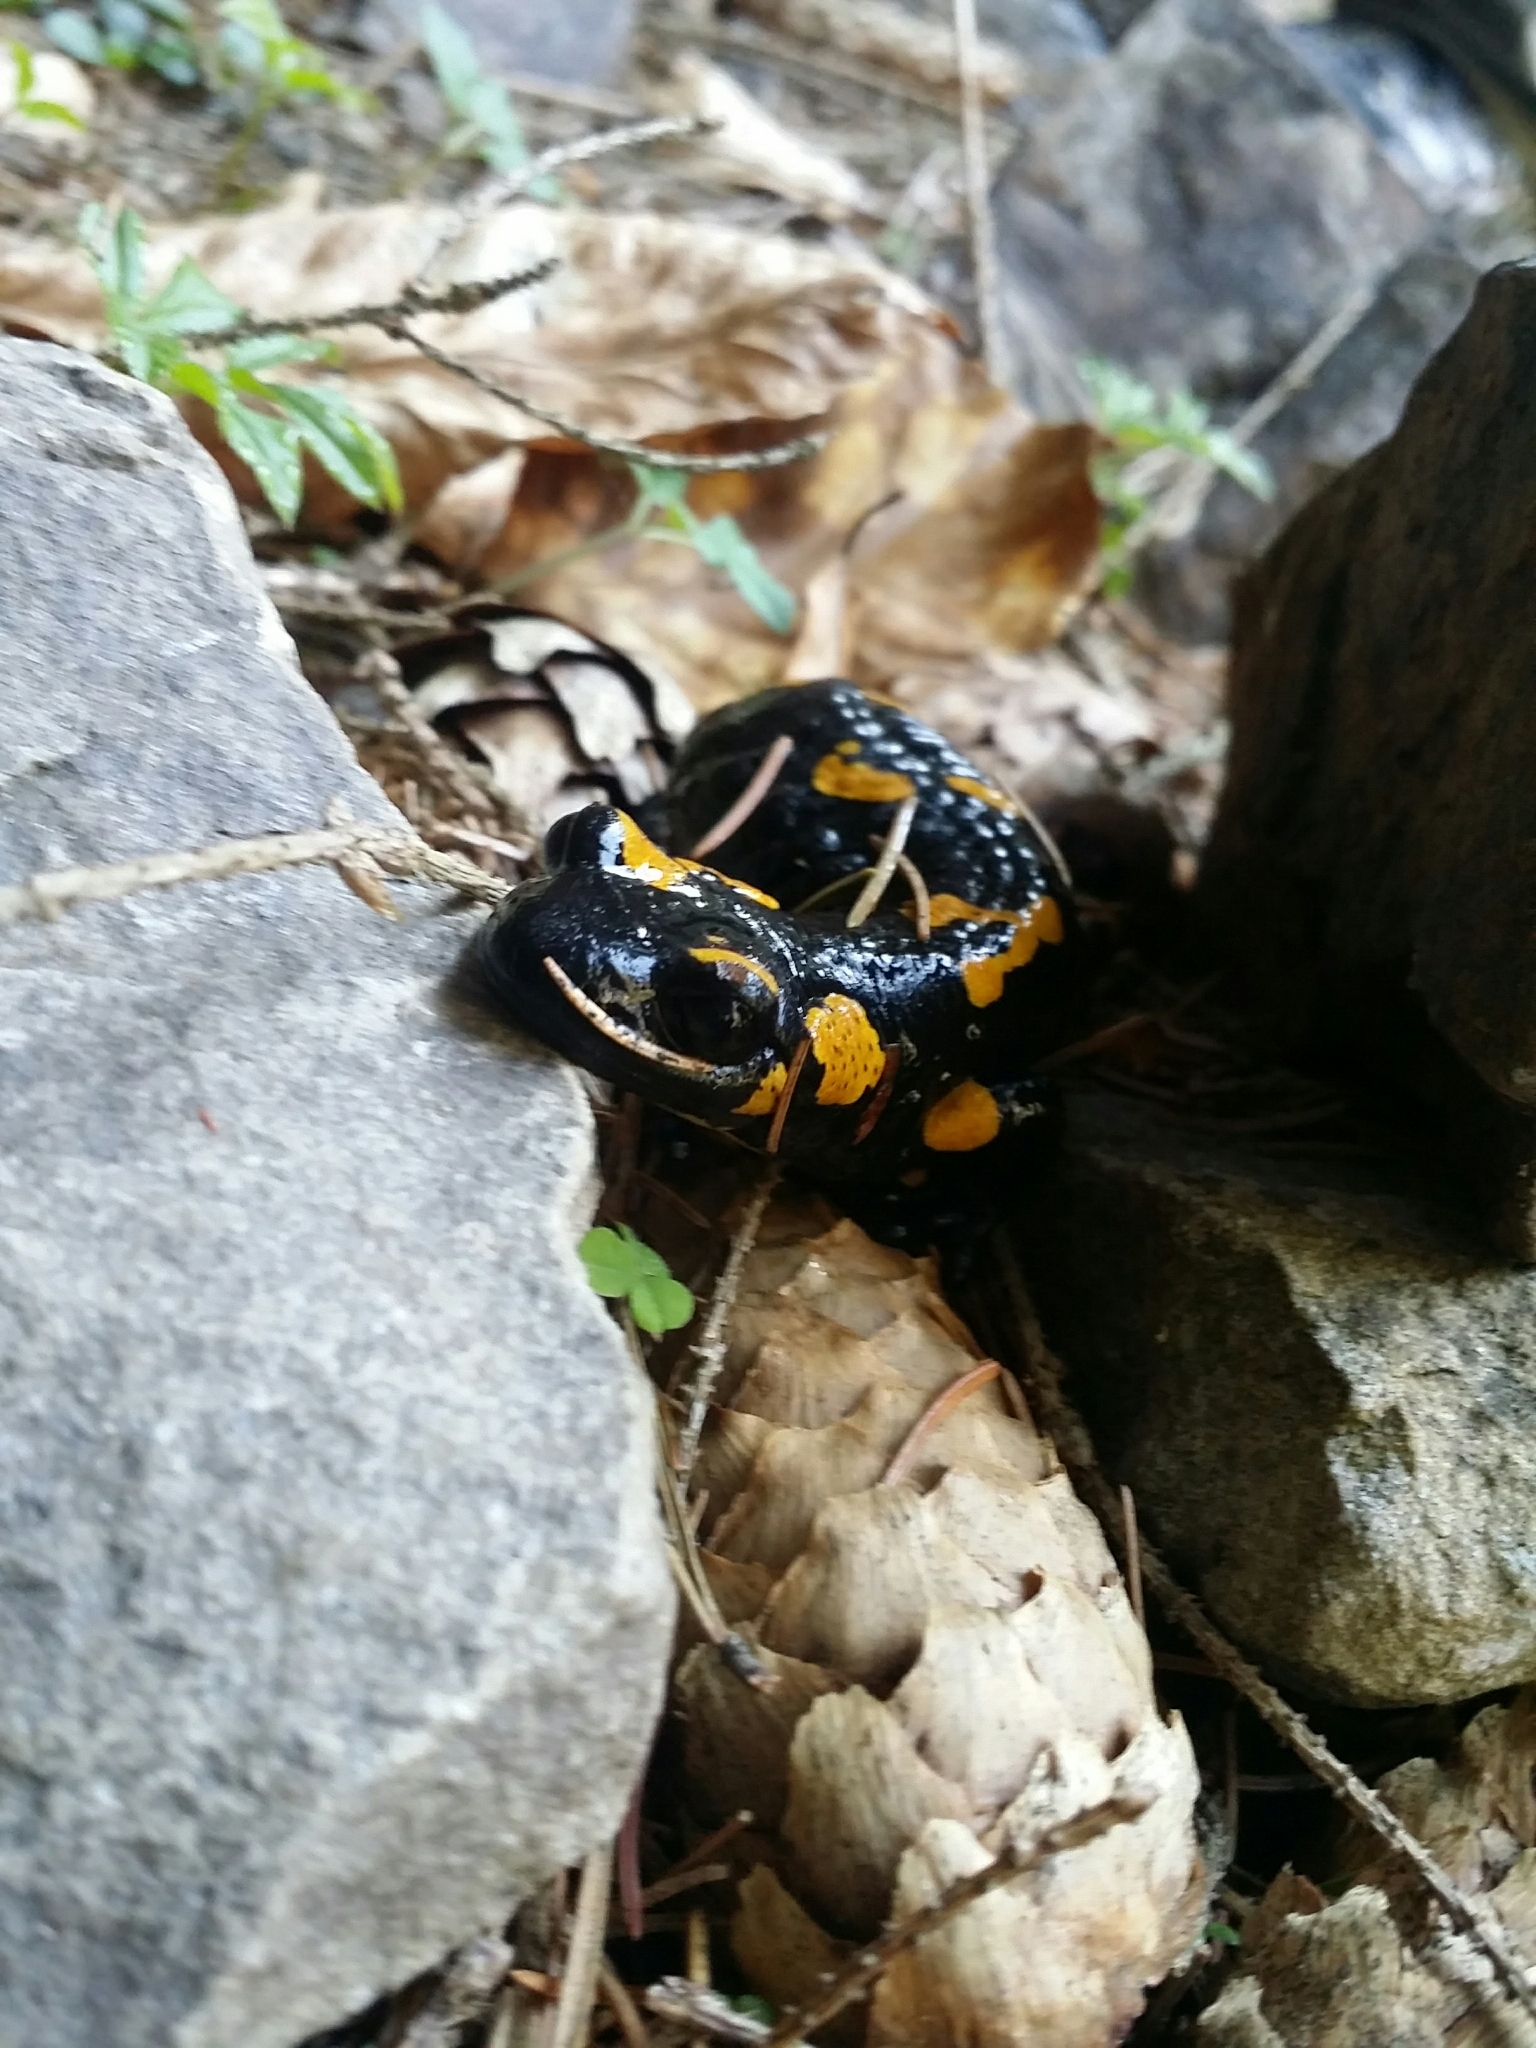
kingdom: Animalia
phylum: Chordata
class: Amphibia
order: Caudata
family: Salamandridae
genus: Salamandra
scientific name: Salamandra salamandra
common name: Fire salamander
